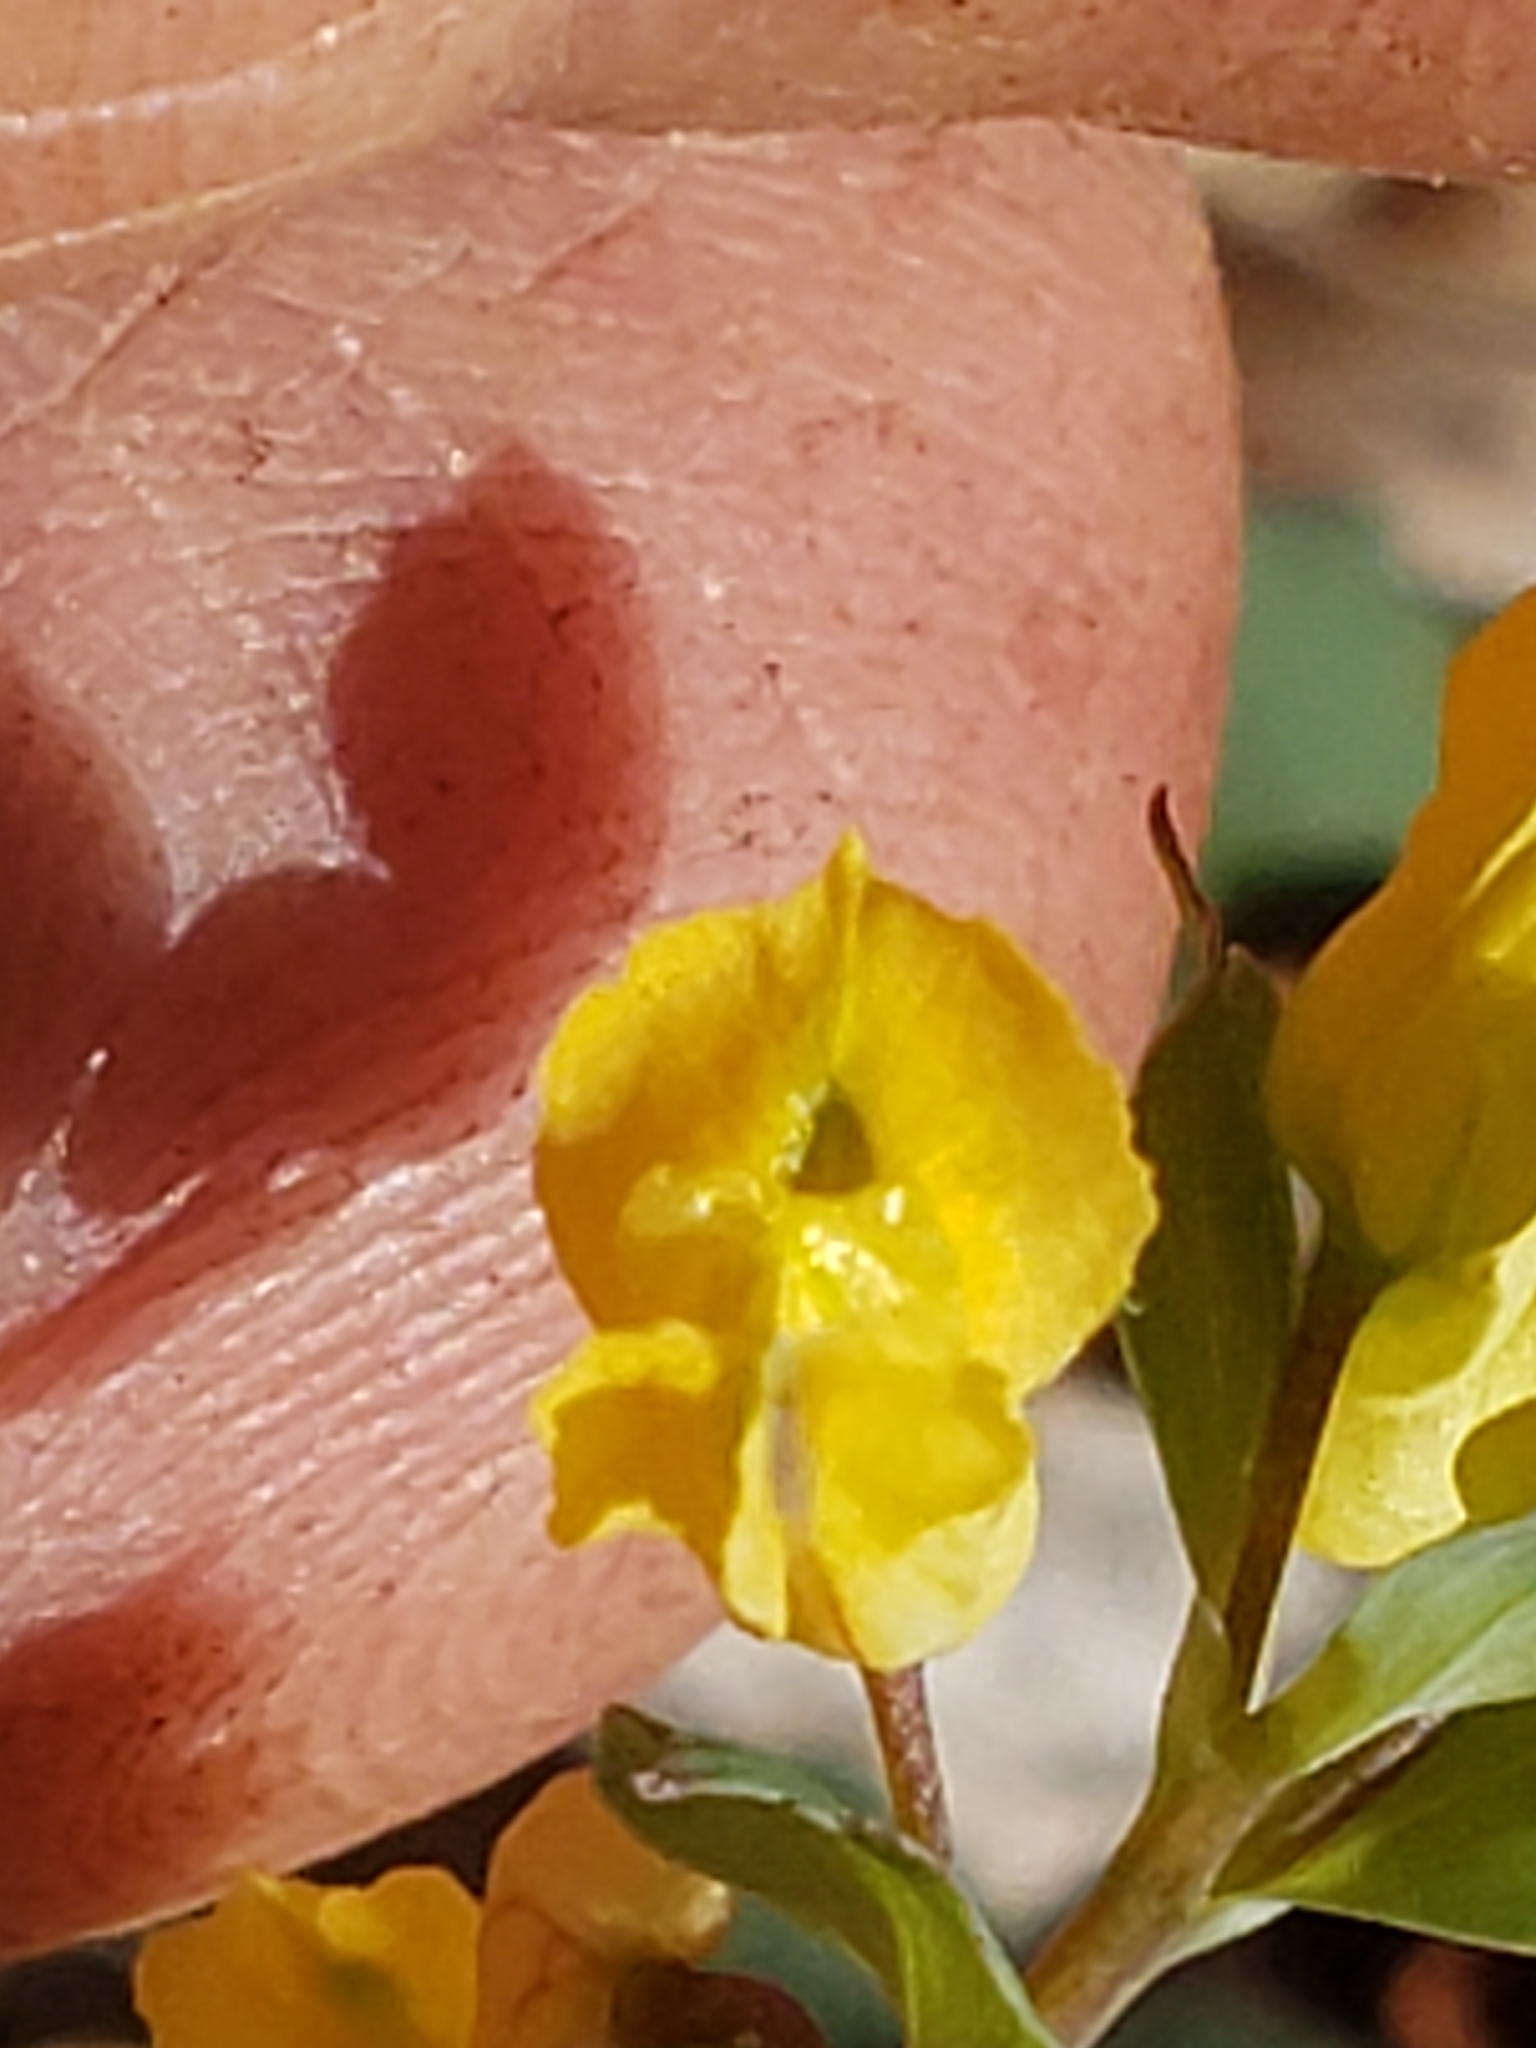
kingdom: Plantae
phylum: Tracheophyta
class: Magnoliopsida
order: Ranunculales
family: Papaveraceae
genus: Corydalis
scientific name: Corydalis flavula
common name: Yellow corydalis
